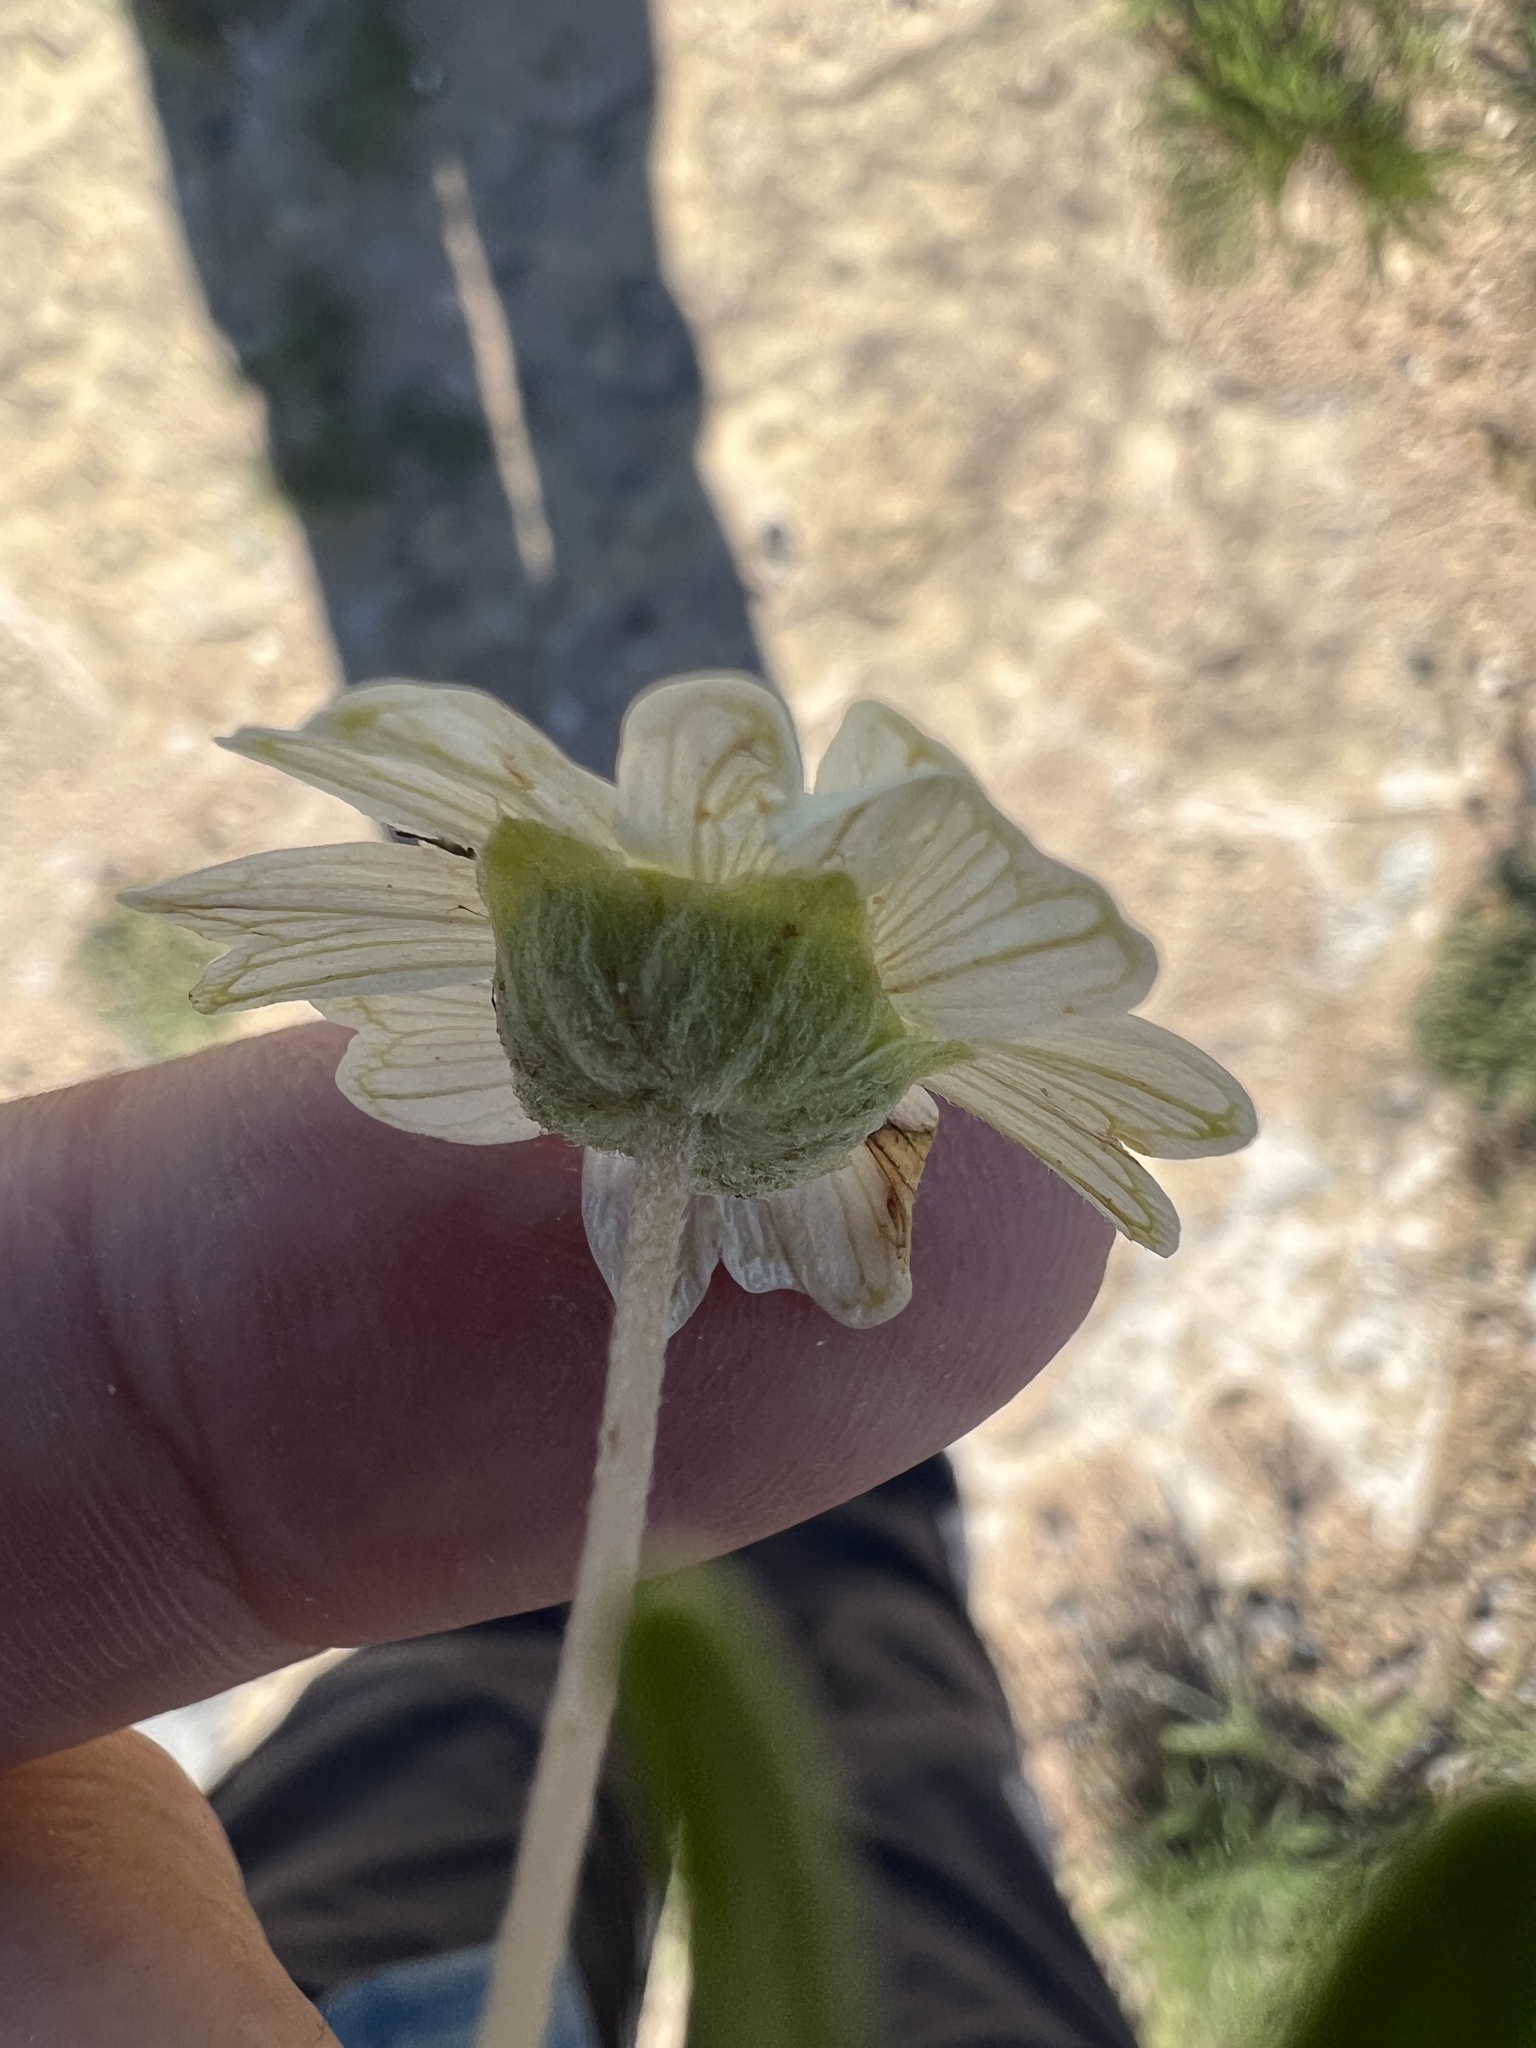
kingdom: Plantae
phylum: Tracheophyta
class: Magnoliopsida
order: Asterales
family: Asteraceae
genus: Melampodium
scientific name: Melampodium leucanthum
